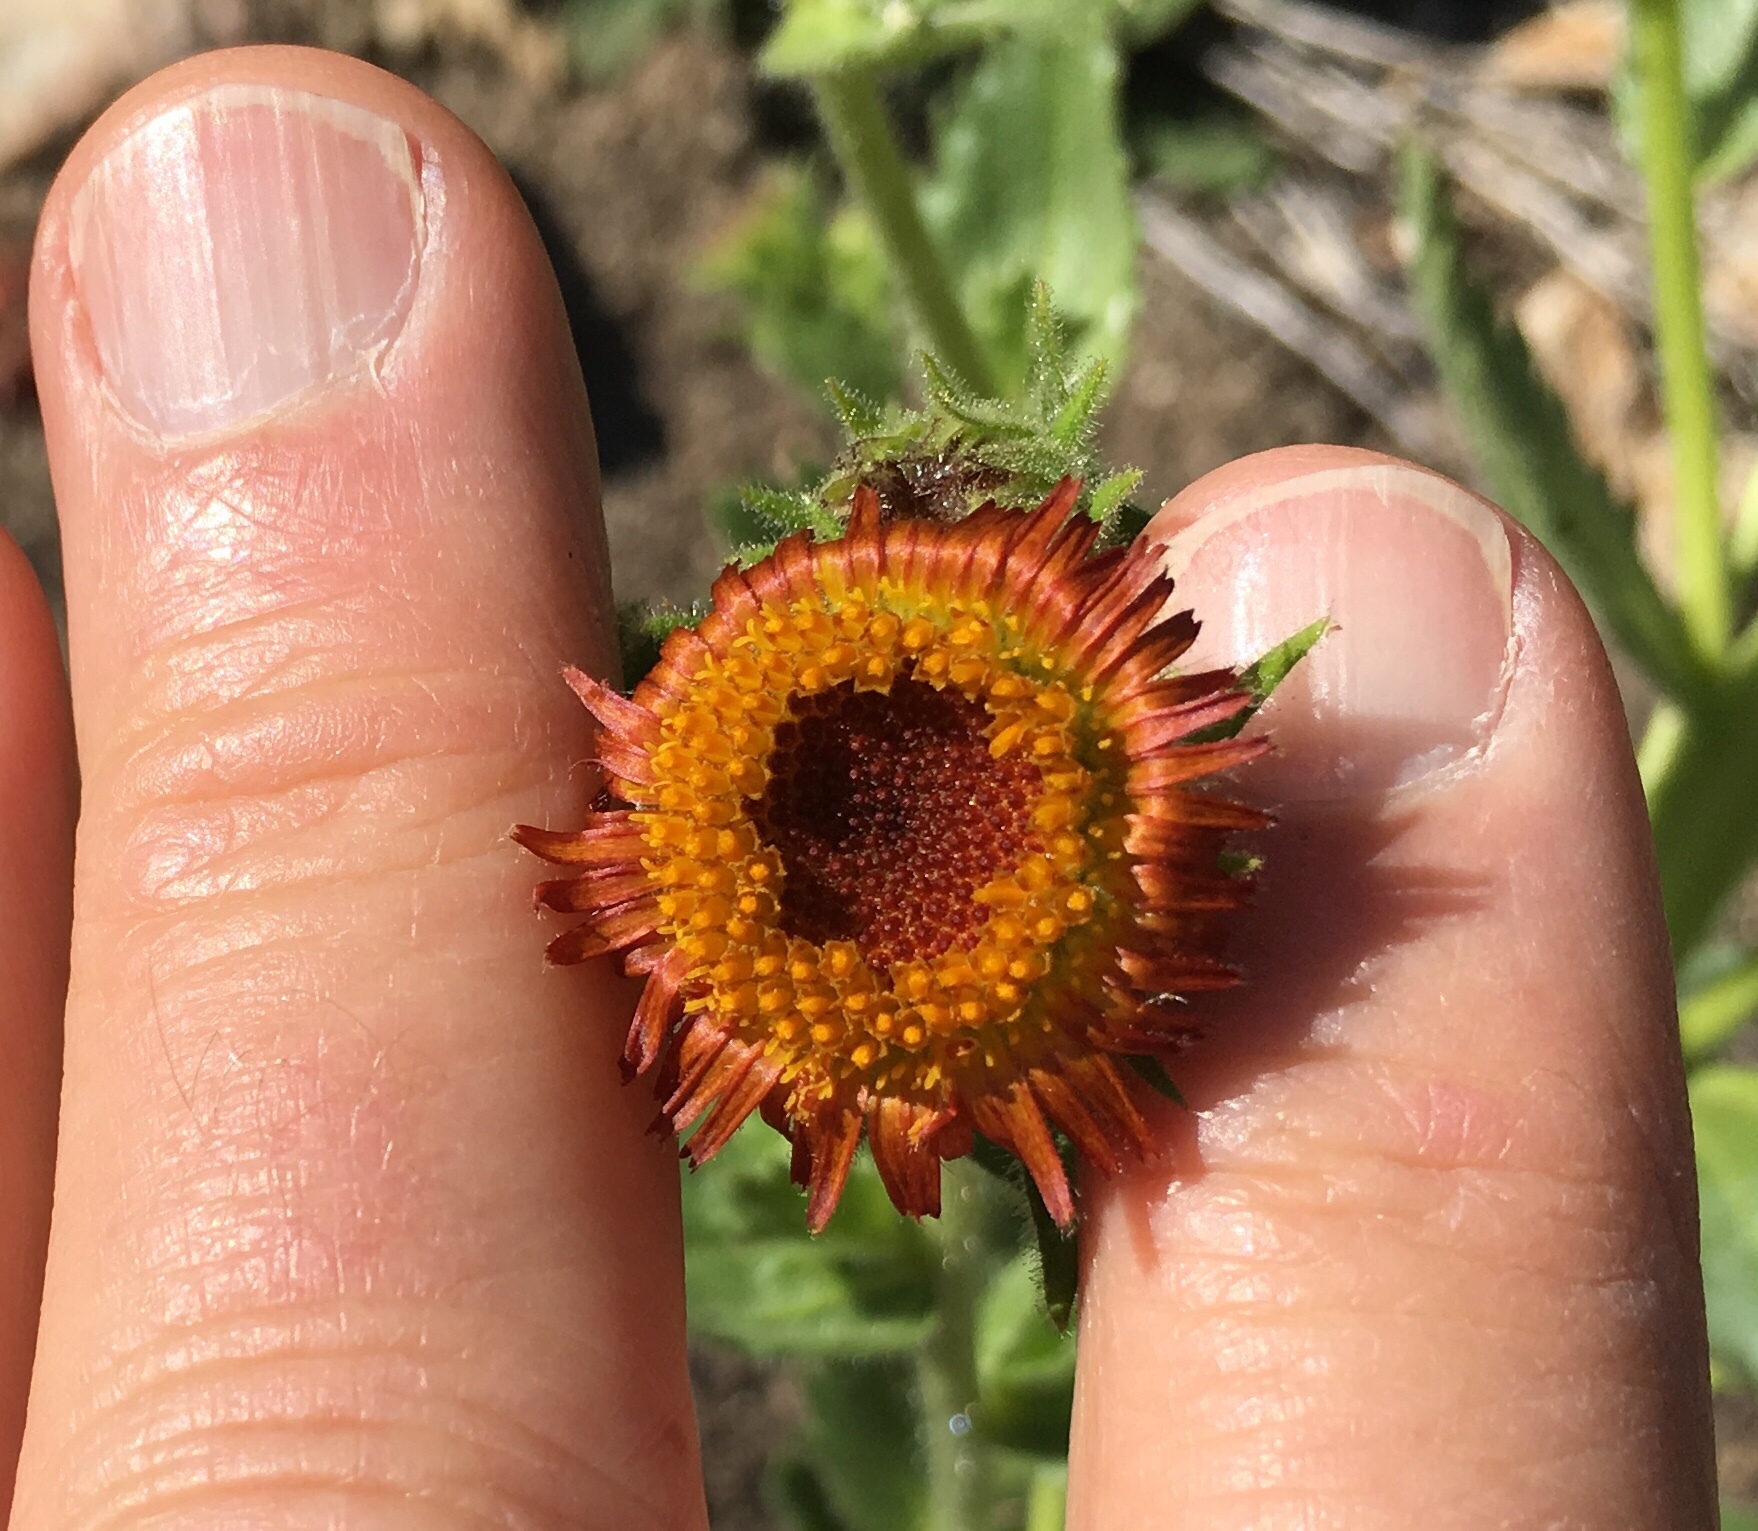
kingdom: Plantae
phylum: Tracheophyta
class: Magnoliopsida
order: Asterales
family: Asteraceae
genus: Hulsea
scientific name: Hulsea heterochroma
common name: Redray alpinegold
